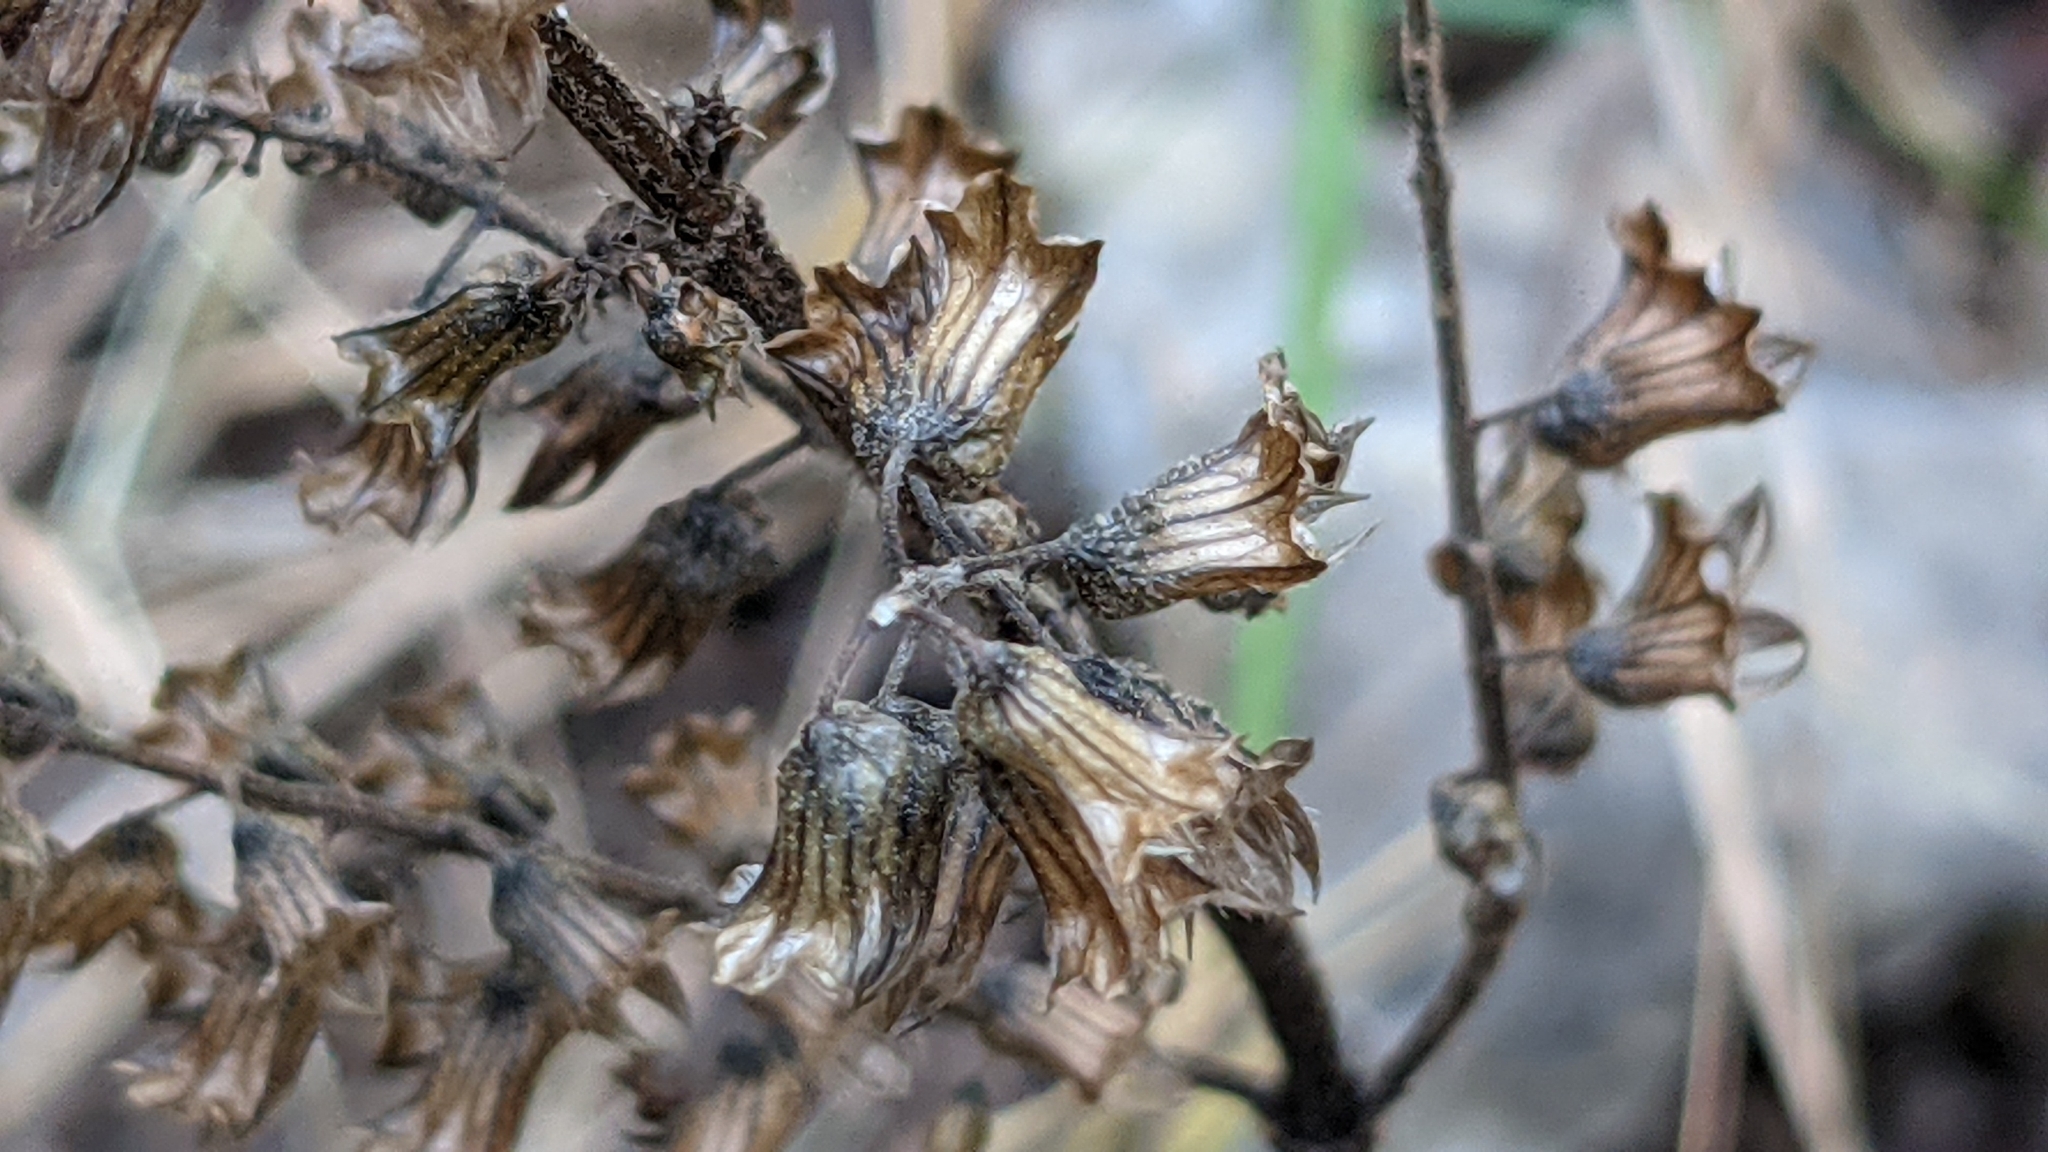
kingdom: Plantae
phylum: Tracheophyta
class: Magnoliopsida
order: Lamiales
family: Lamiaceae
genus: Perilla
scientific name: Perilla frutescens
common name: Perilla
